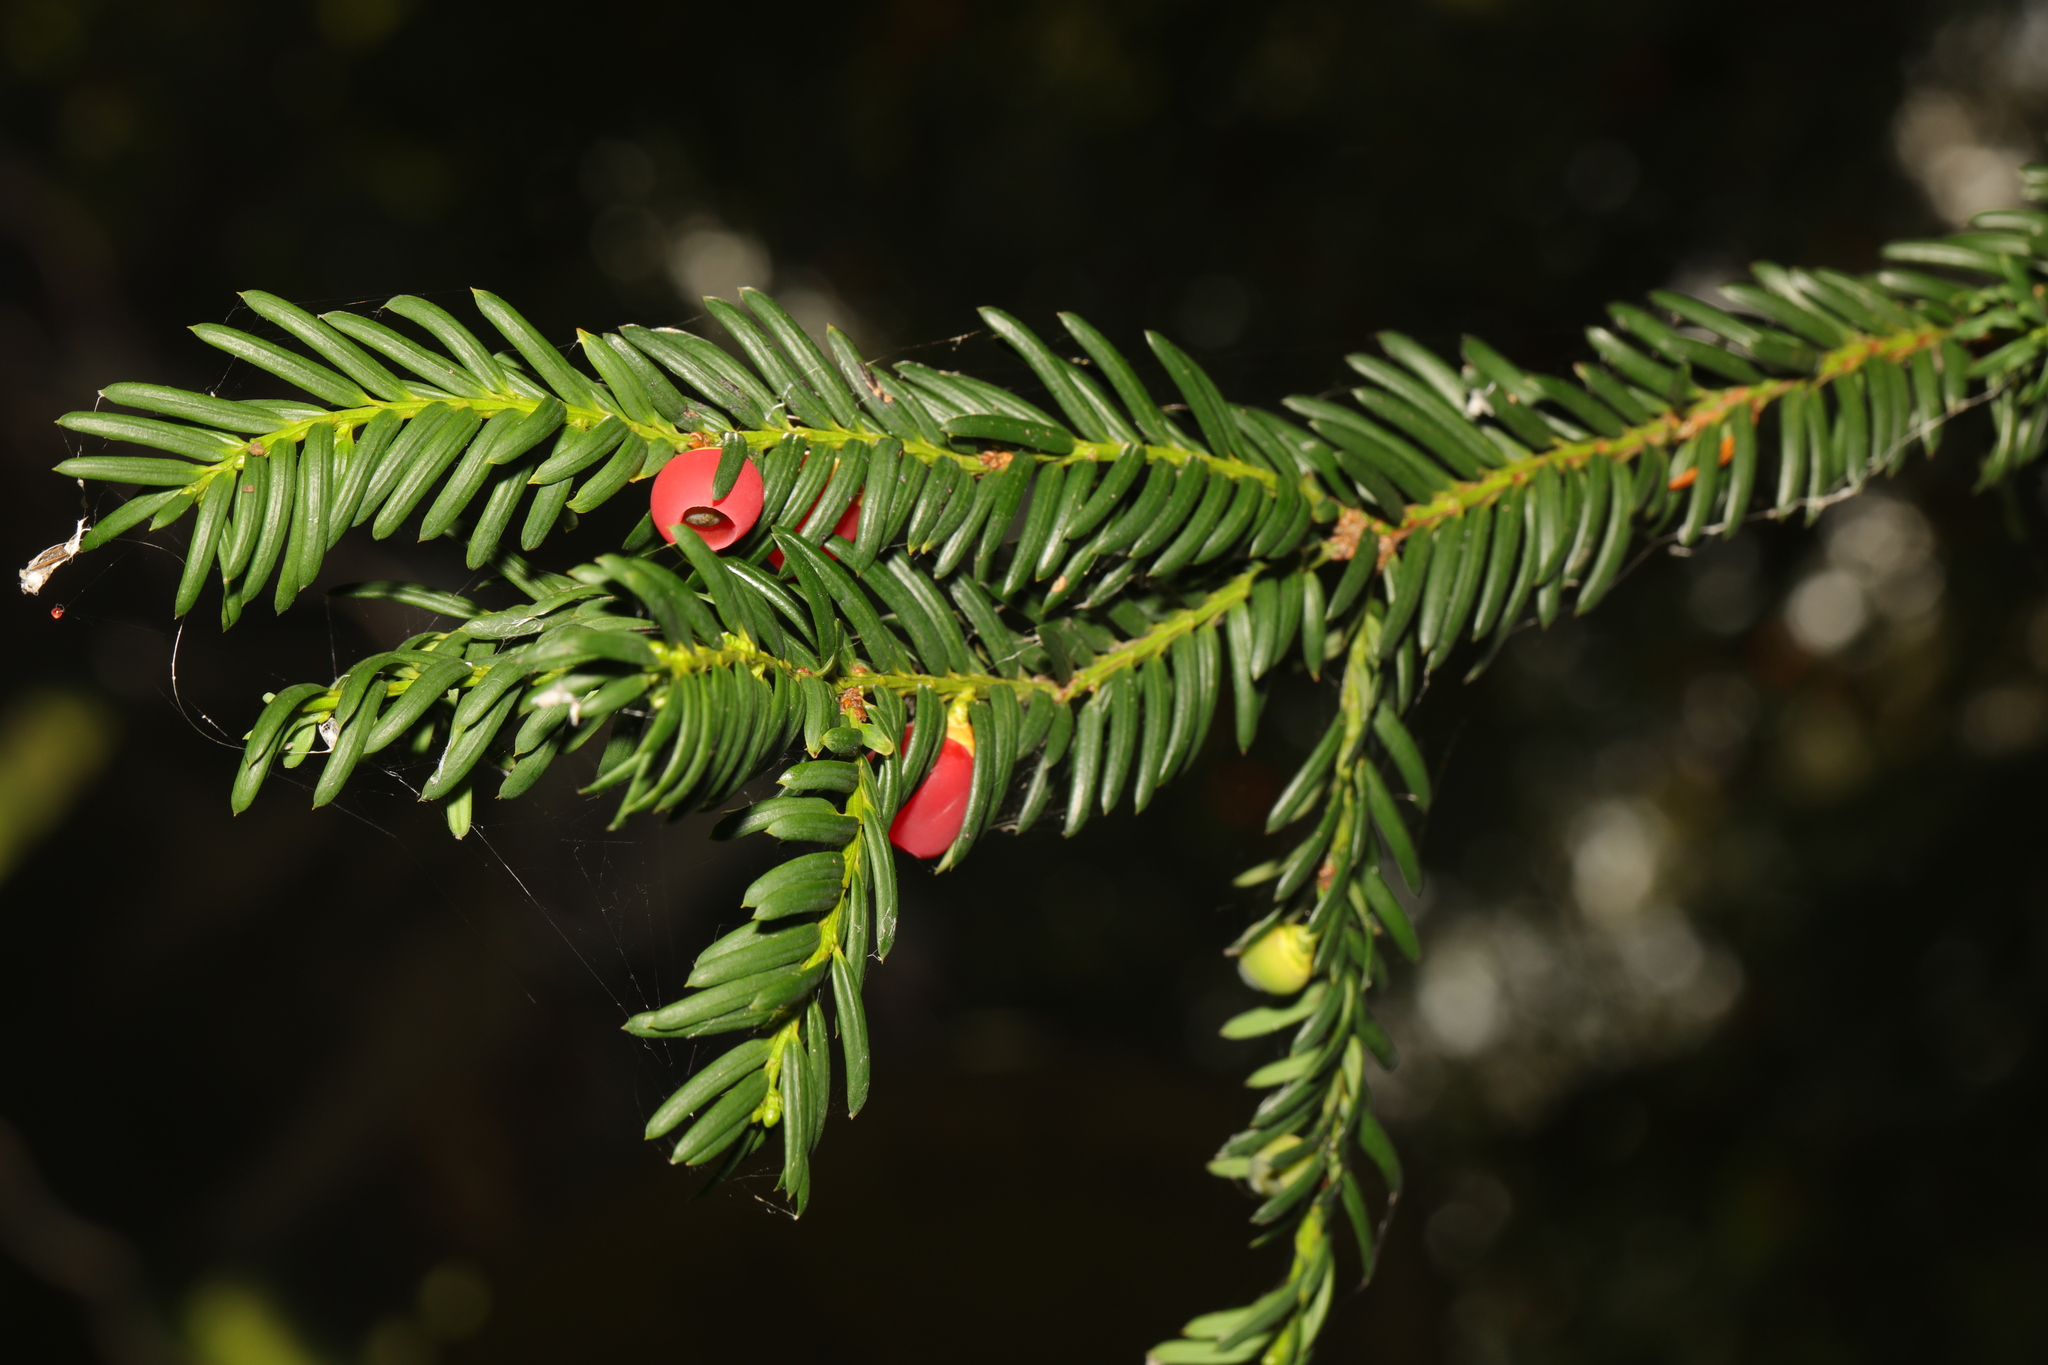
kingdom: Plantae
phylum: Tracheophyta
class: Pinopsida
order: Pinales
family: Taxaceae
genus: Taxus
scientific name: Taxus baccata
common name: Yew
